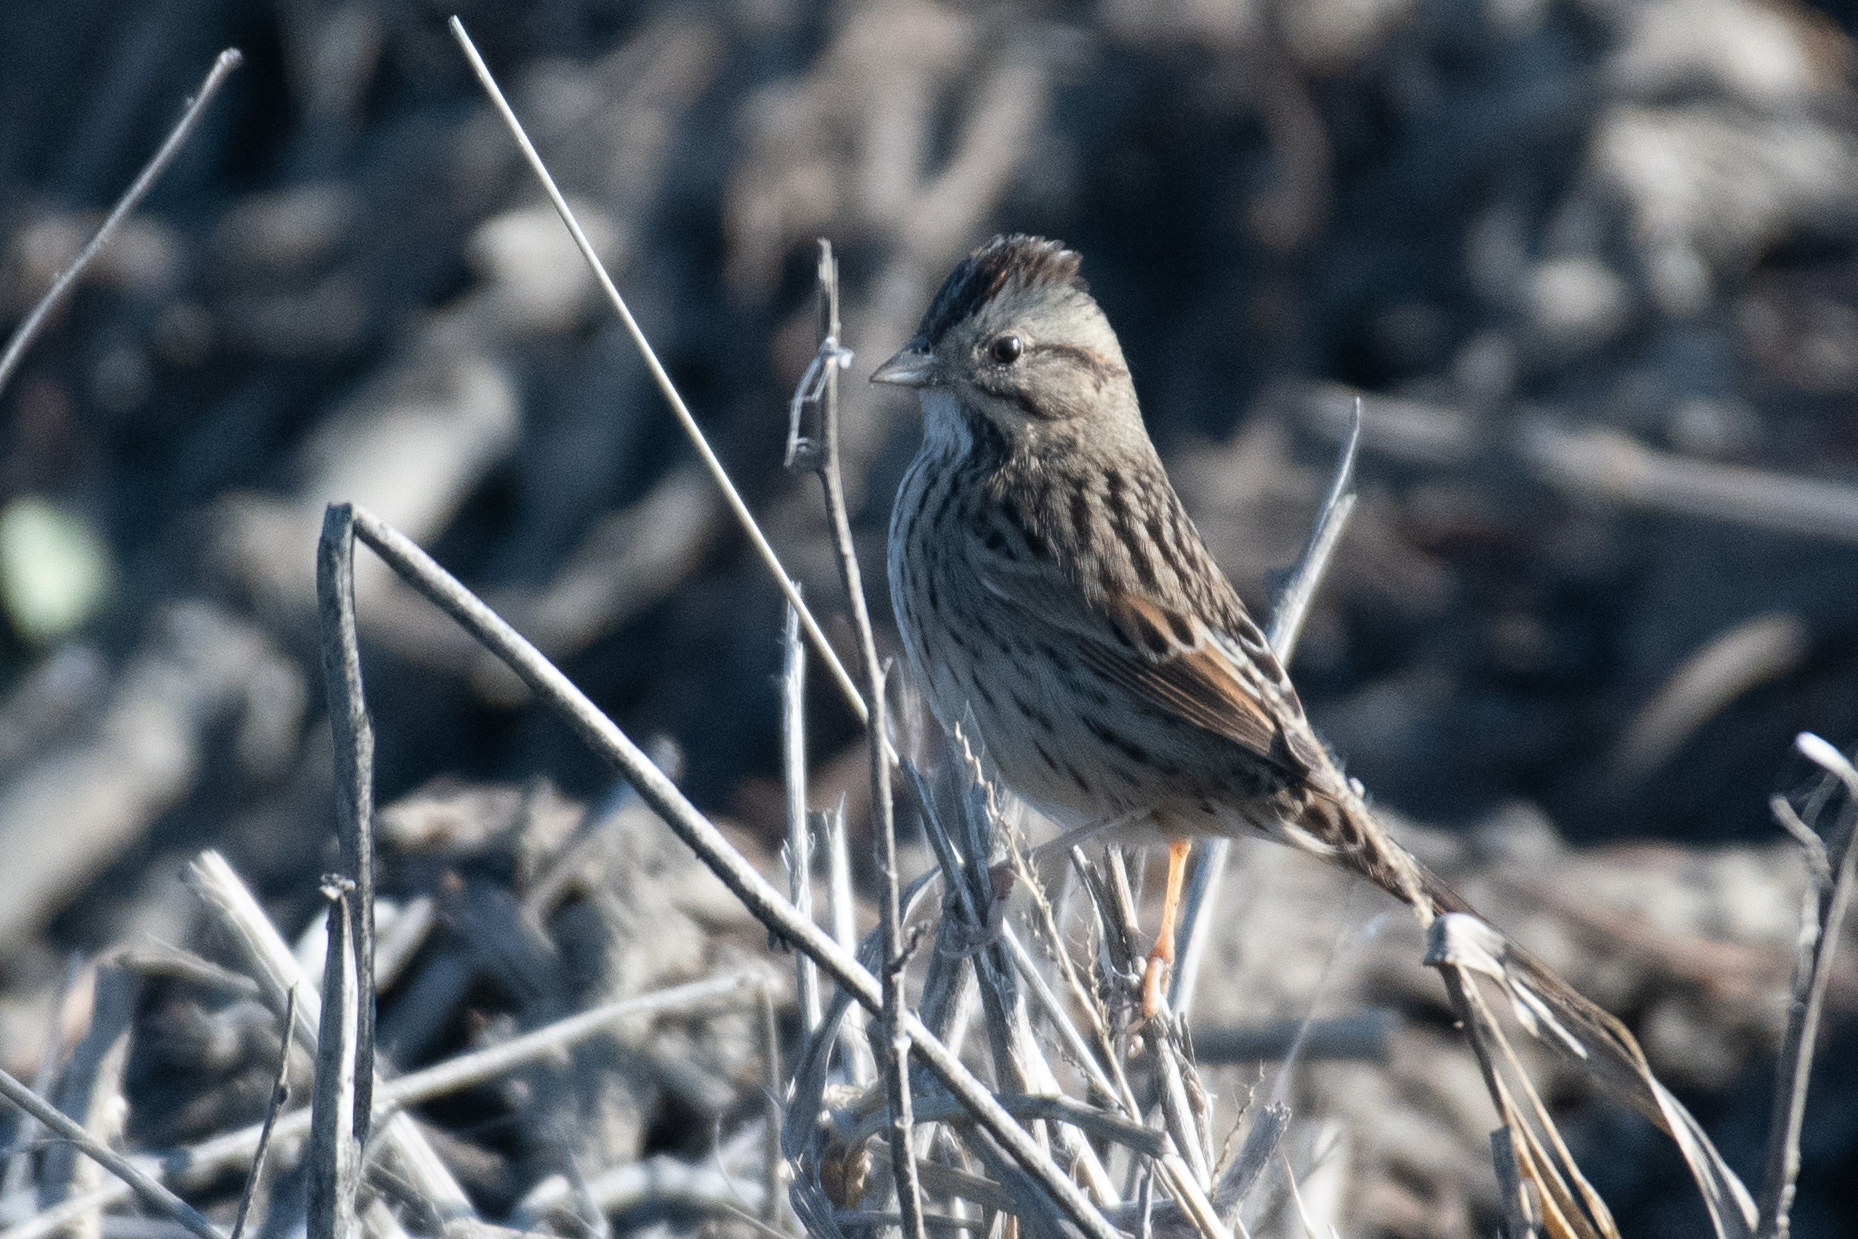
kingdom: Animalia
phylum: Chordata
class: Aves
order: Passeriformes
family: Passerellidae
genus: Melospiza
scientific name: Melospiza lincolnii
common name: Lincoln's sparrow
